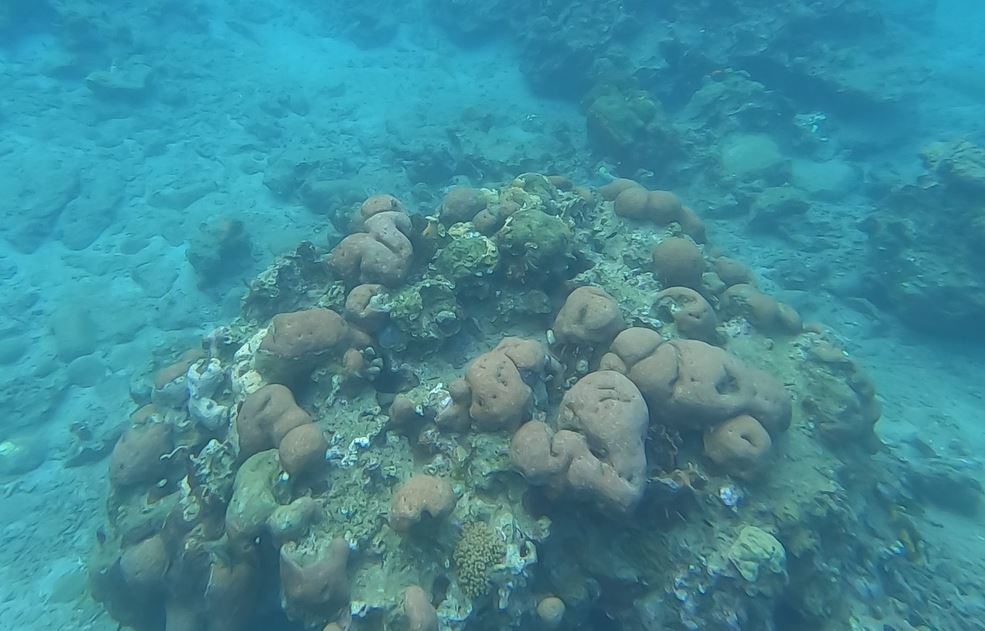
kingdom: Animalia
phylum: Cnidaria
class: Anthozoa
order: Scleractinia
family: Merulinidae
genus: Orbicella
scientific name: Orbicella annularis
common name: Boulder star coral
